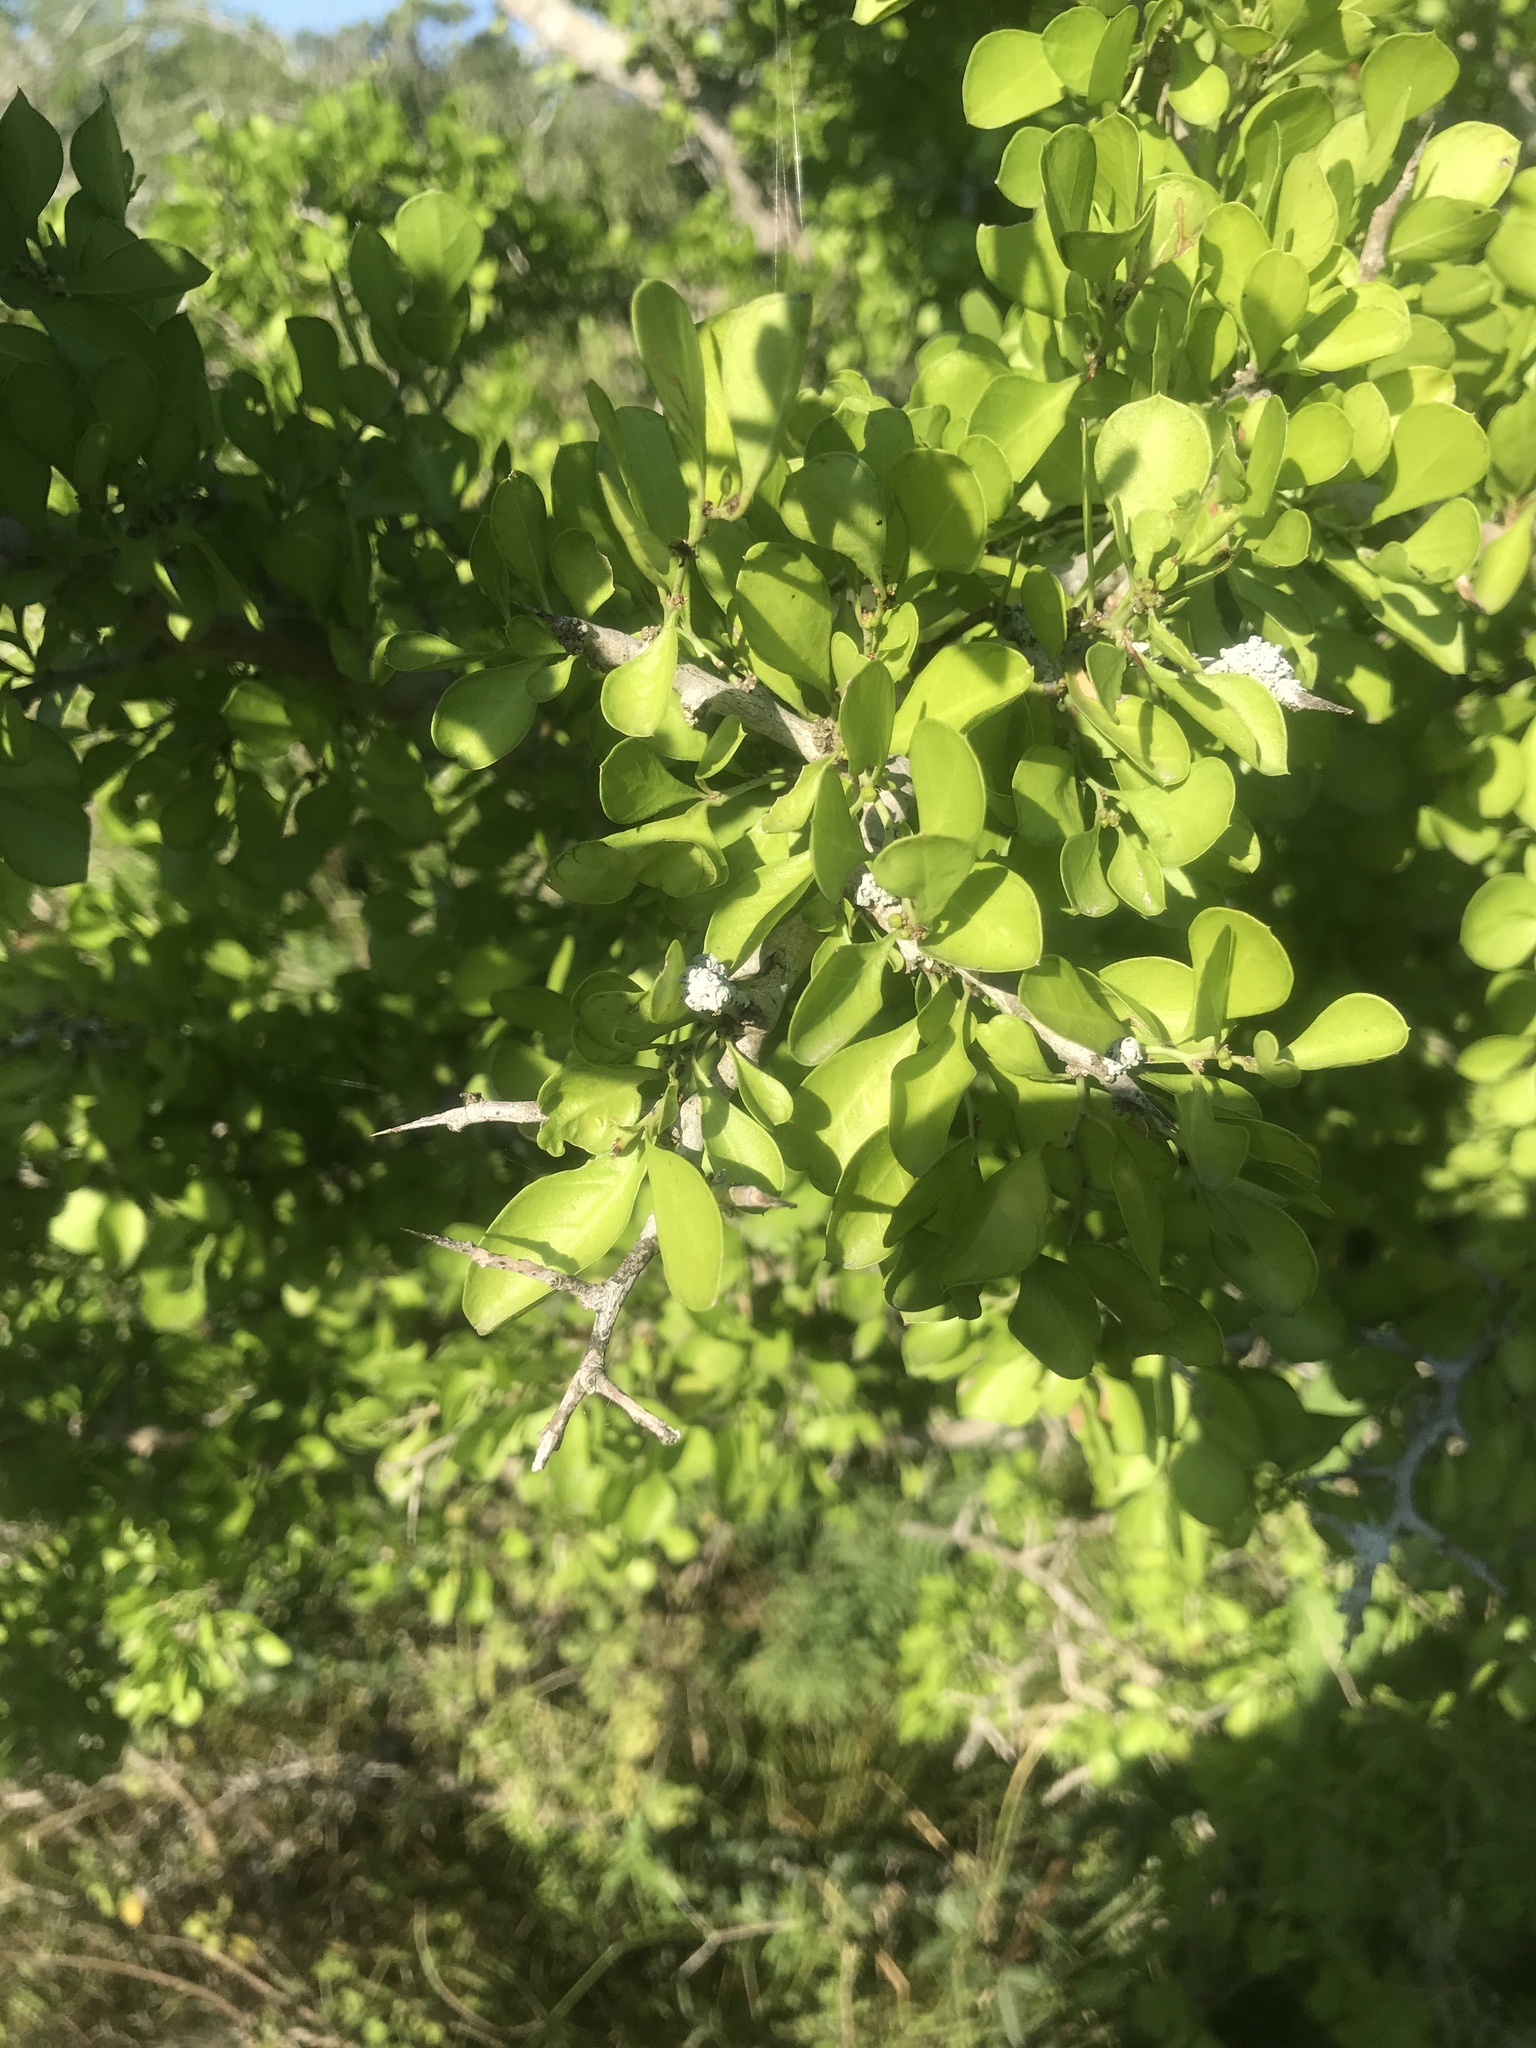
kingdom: Plantae
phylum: Tracheophyta
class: Magnoliopsida
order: Rosales
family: Rhamnaceae
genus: Condalia
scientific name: Condalia hookeri
